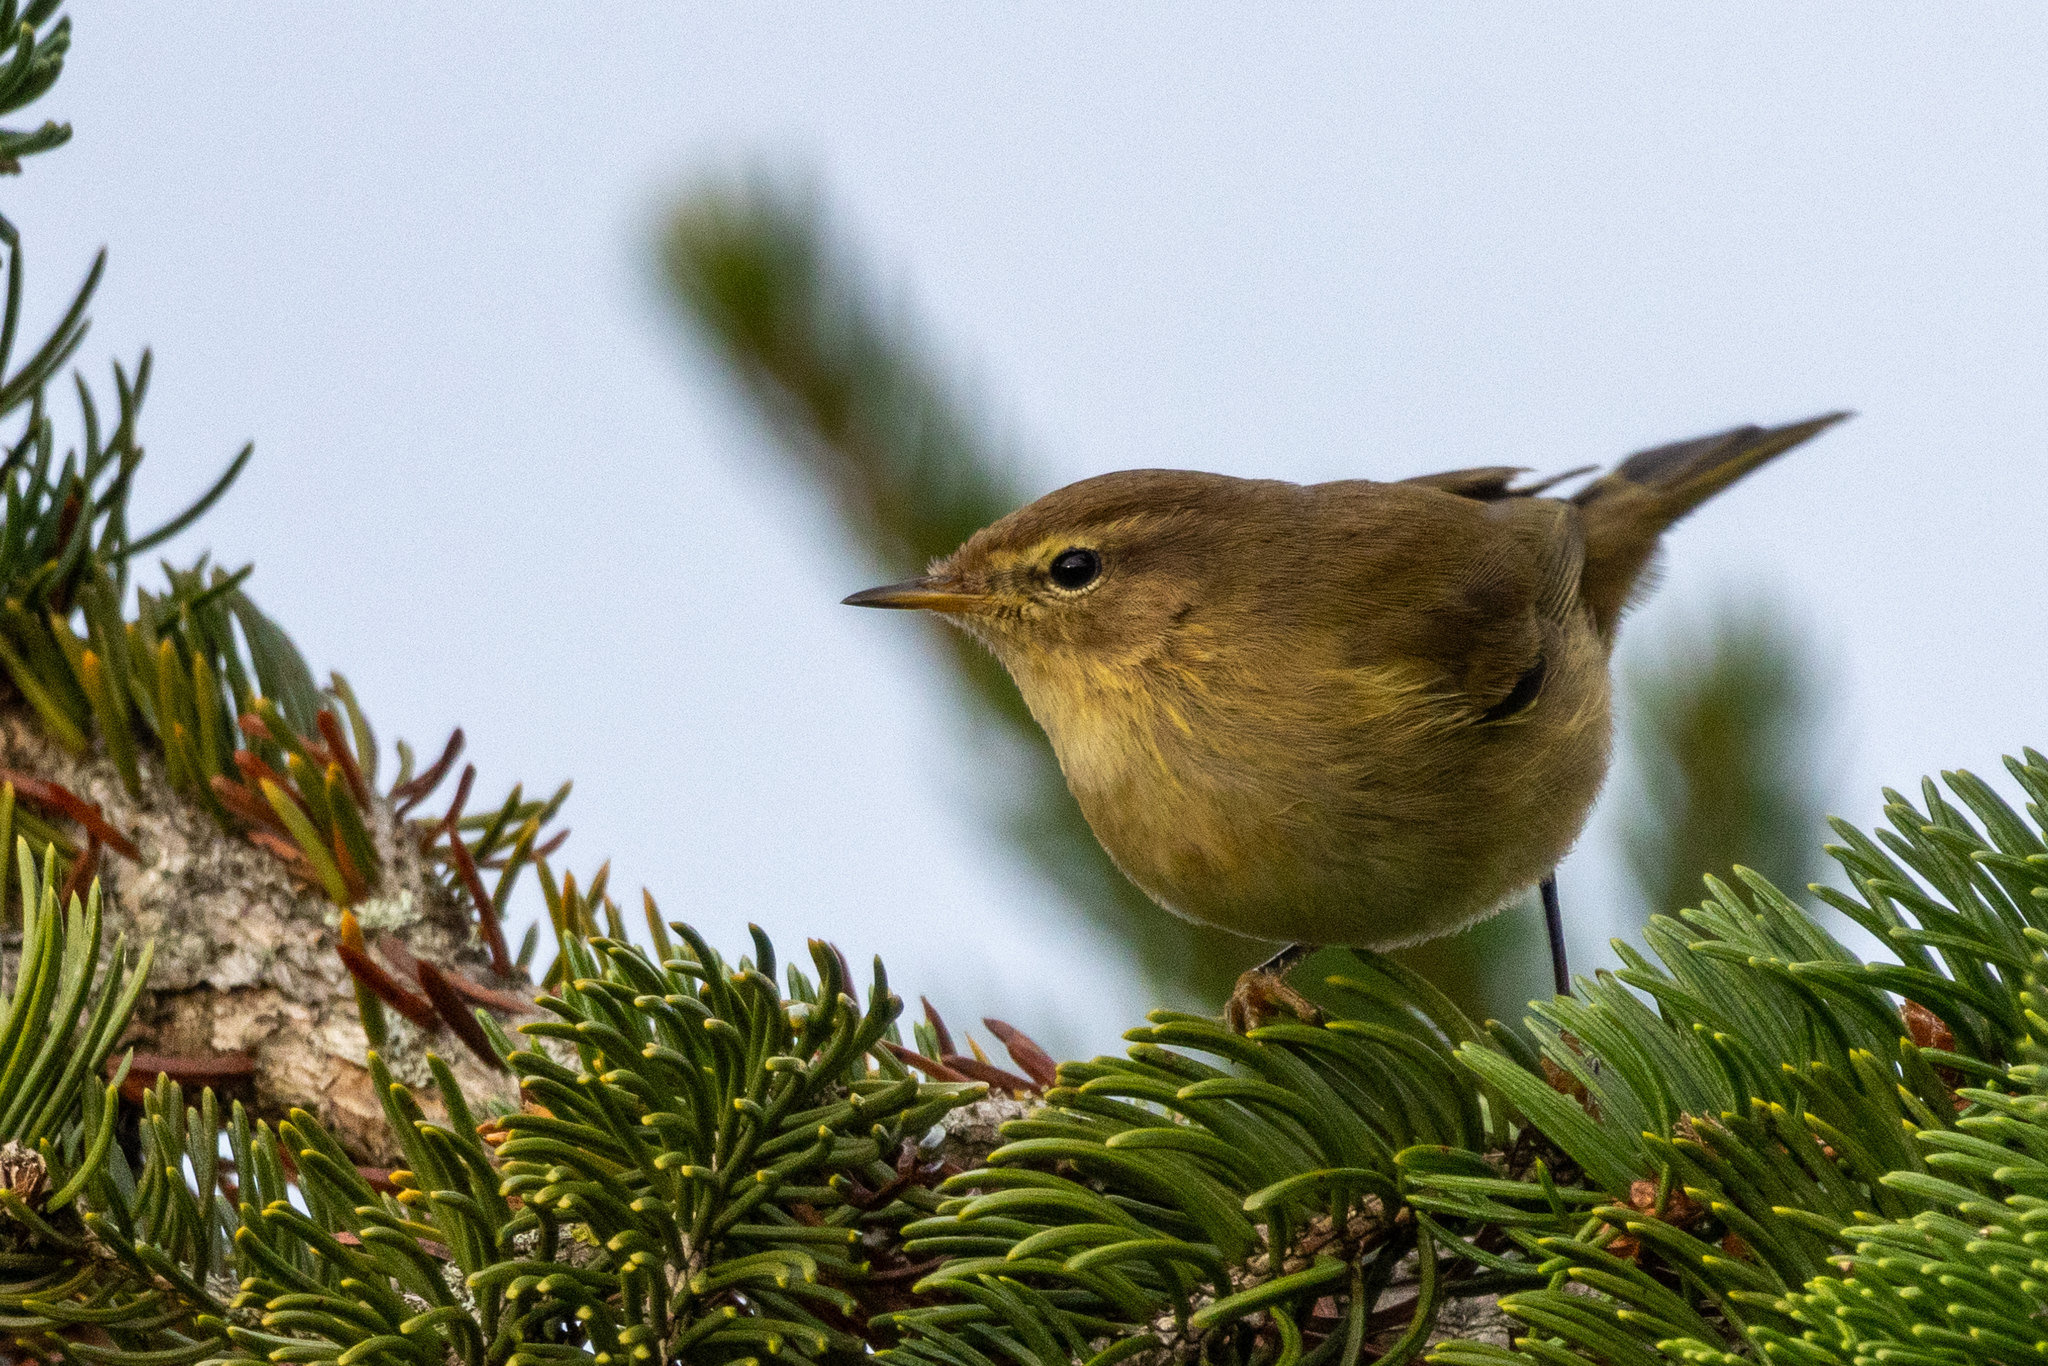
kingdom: Animalia
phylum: Chordata
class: Aves
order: Passeriformes
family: Phylloscopidae
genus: Phylloscopus
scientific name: Phylloscopus collybita
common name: Common chiffchaff
